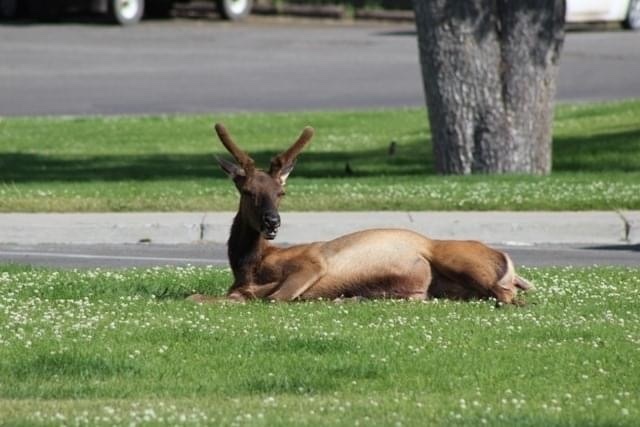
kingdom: Animalia
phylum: Chordata
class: Mammalia
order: Artiodactyla
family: Cervidae
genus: Cervus
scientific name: Cervus elaphus
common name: Red deer
